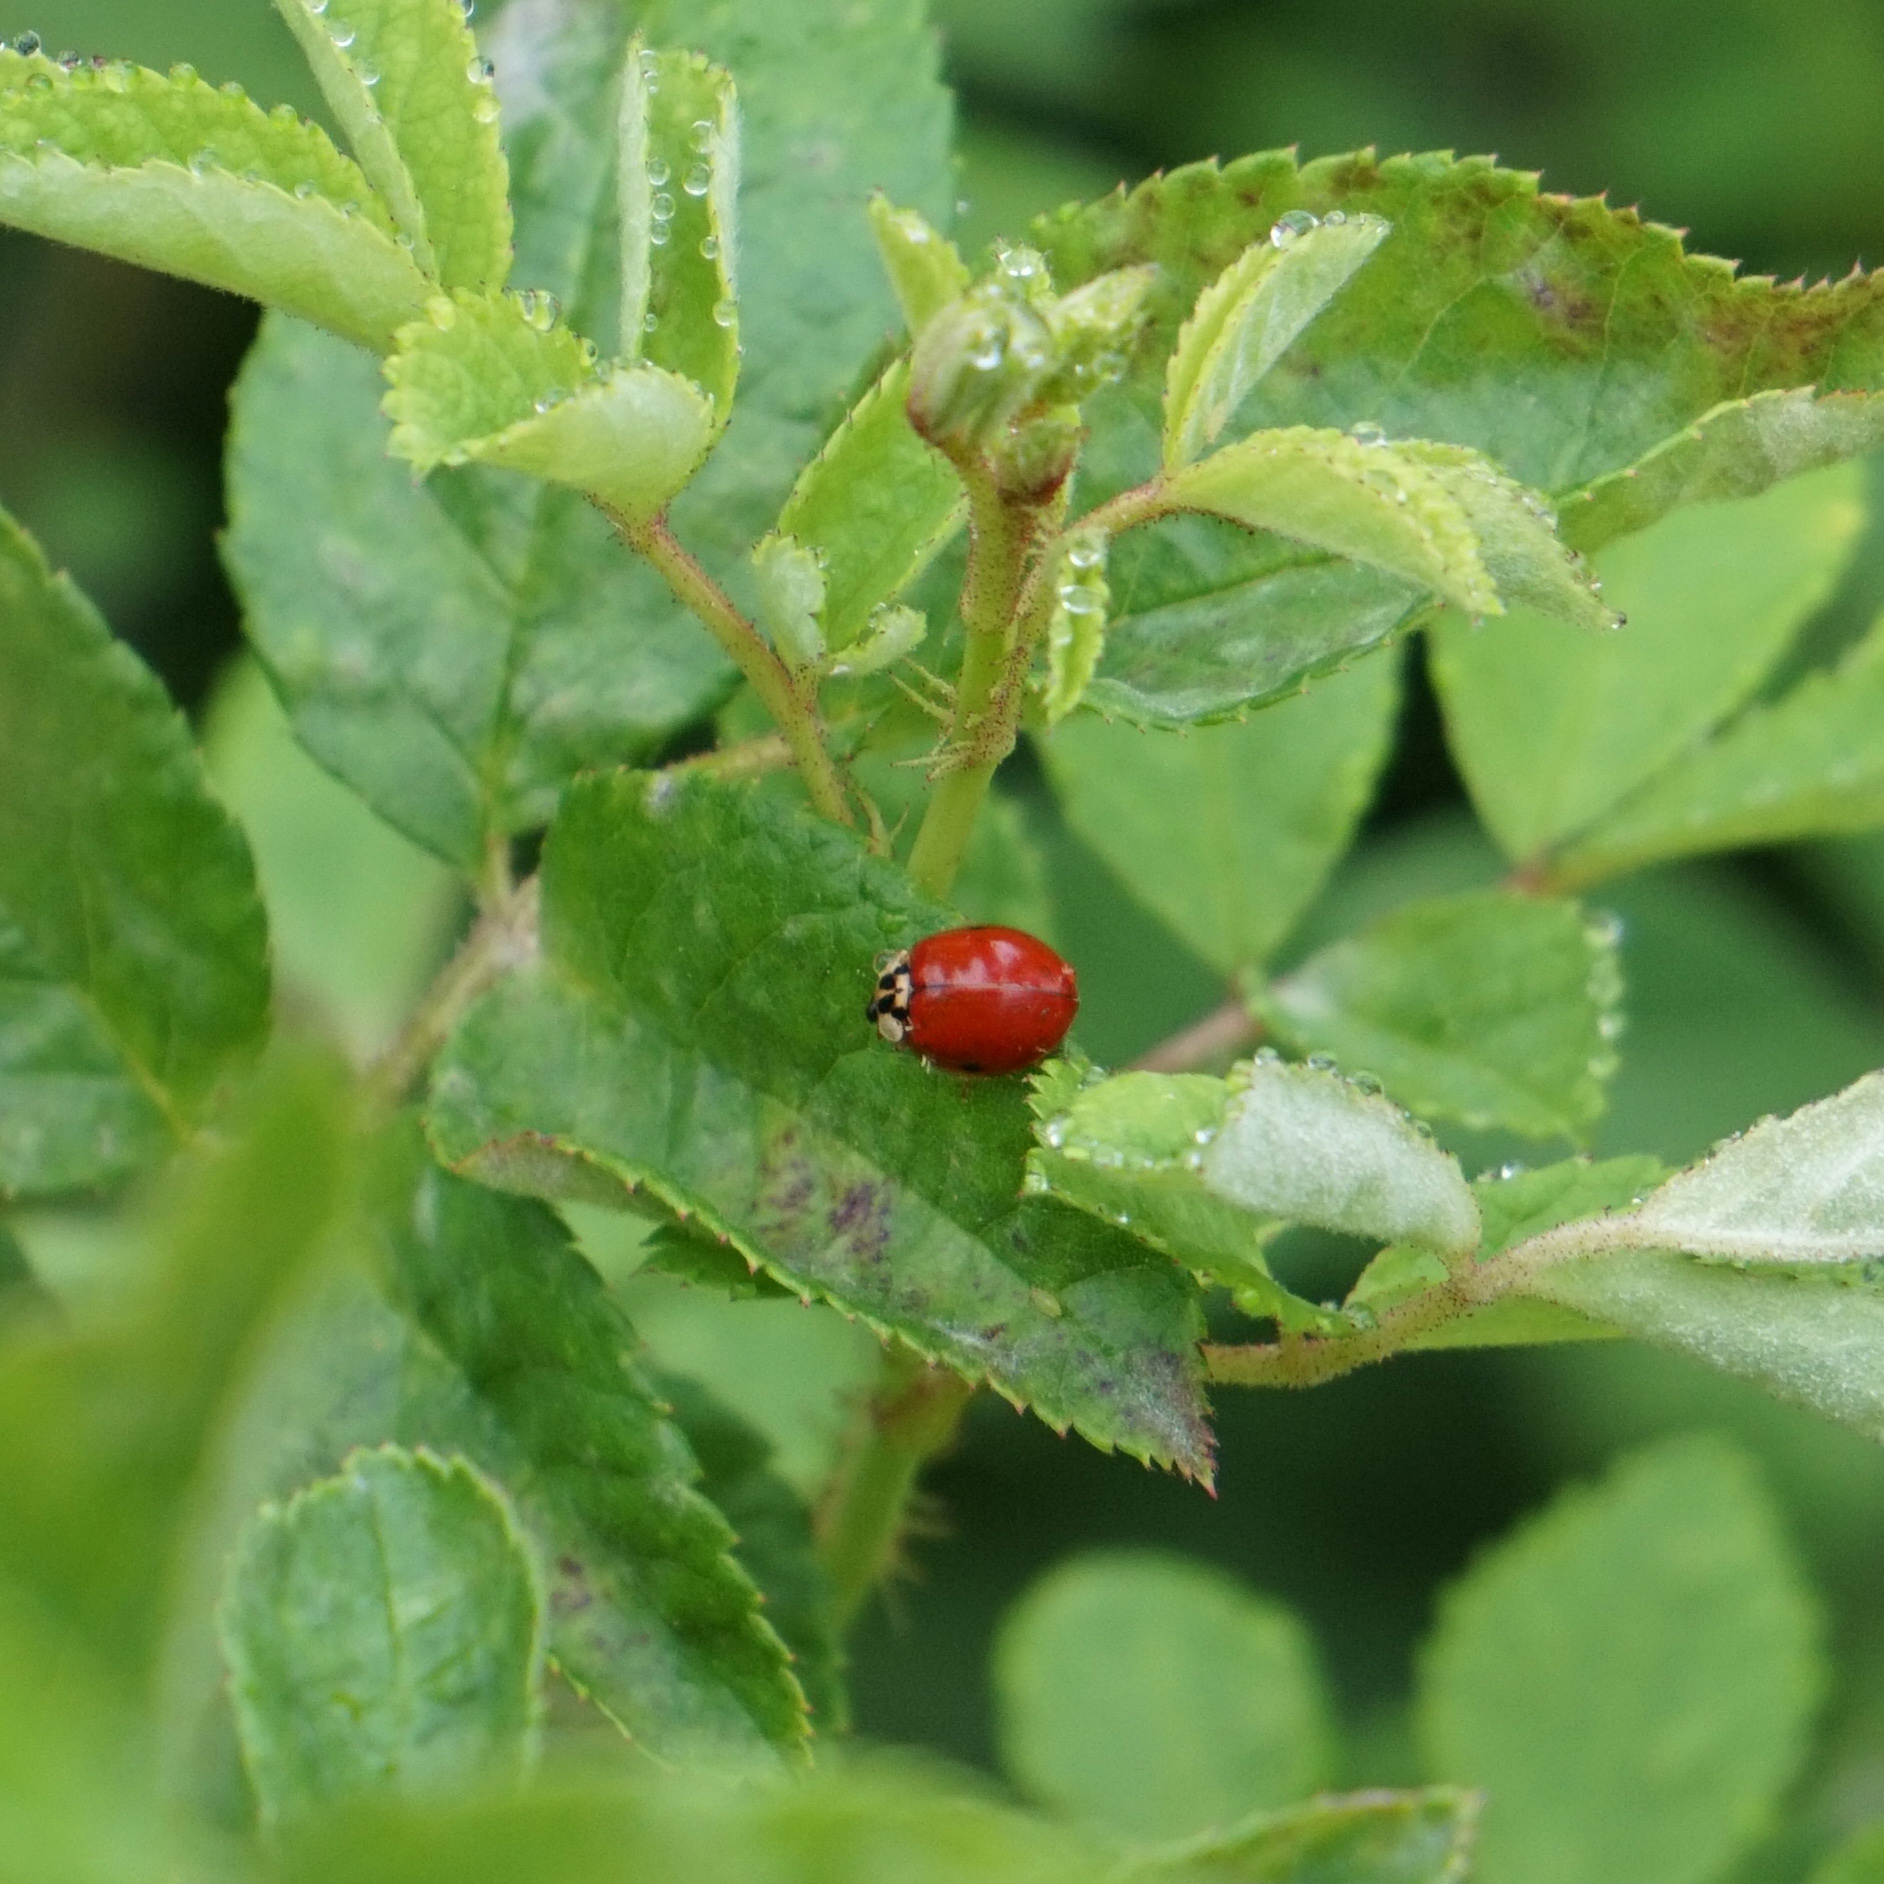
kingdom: Animalia
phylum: Arthropoda
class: Insecta
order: Coleoptera
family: Coccinellidae
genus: Harmonia
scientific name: Harmonia axyridis
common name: Harlequin ladybird
